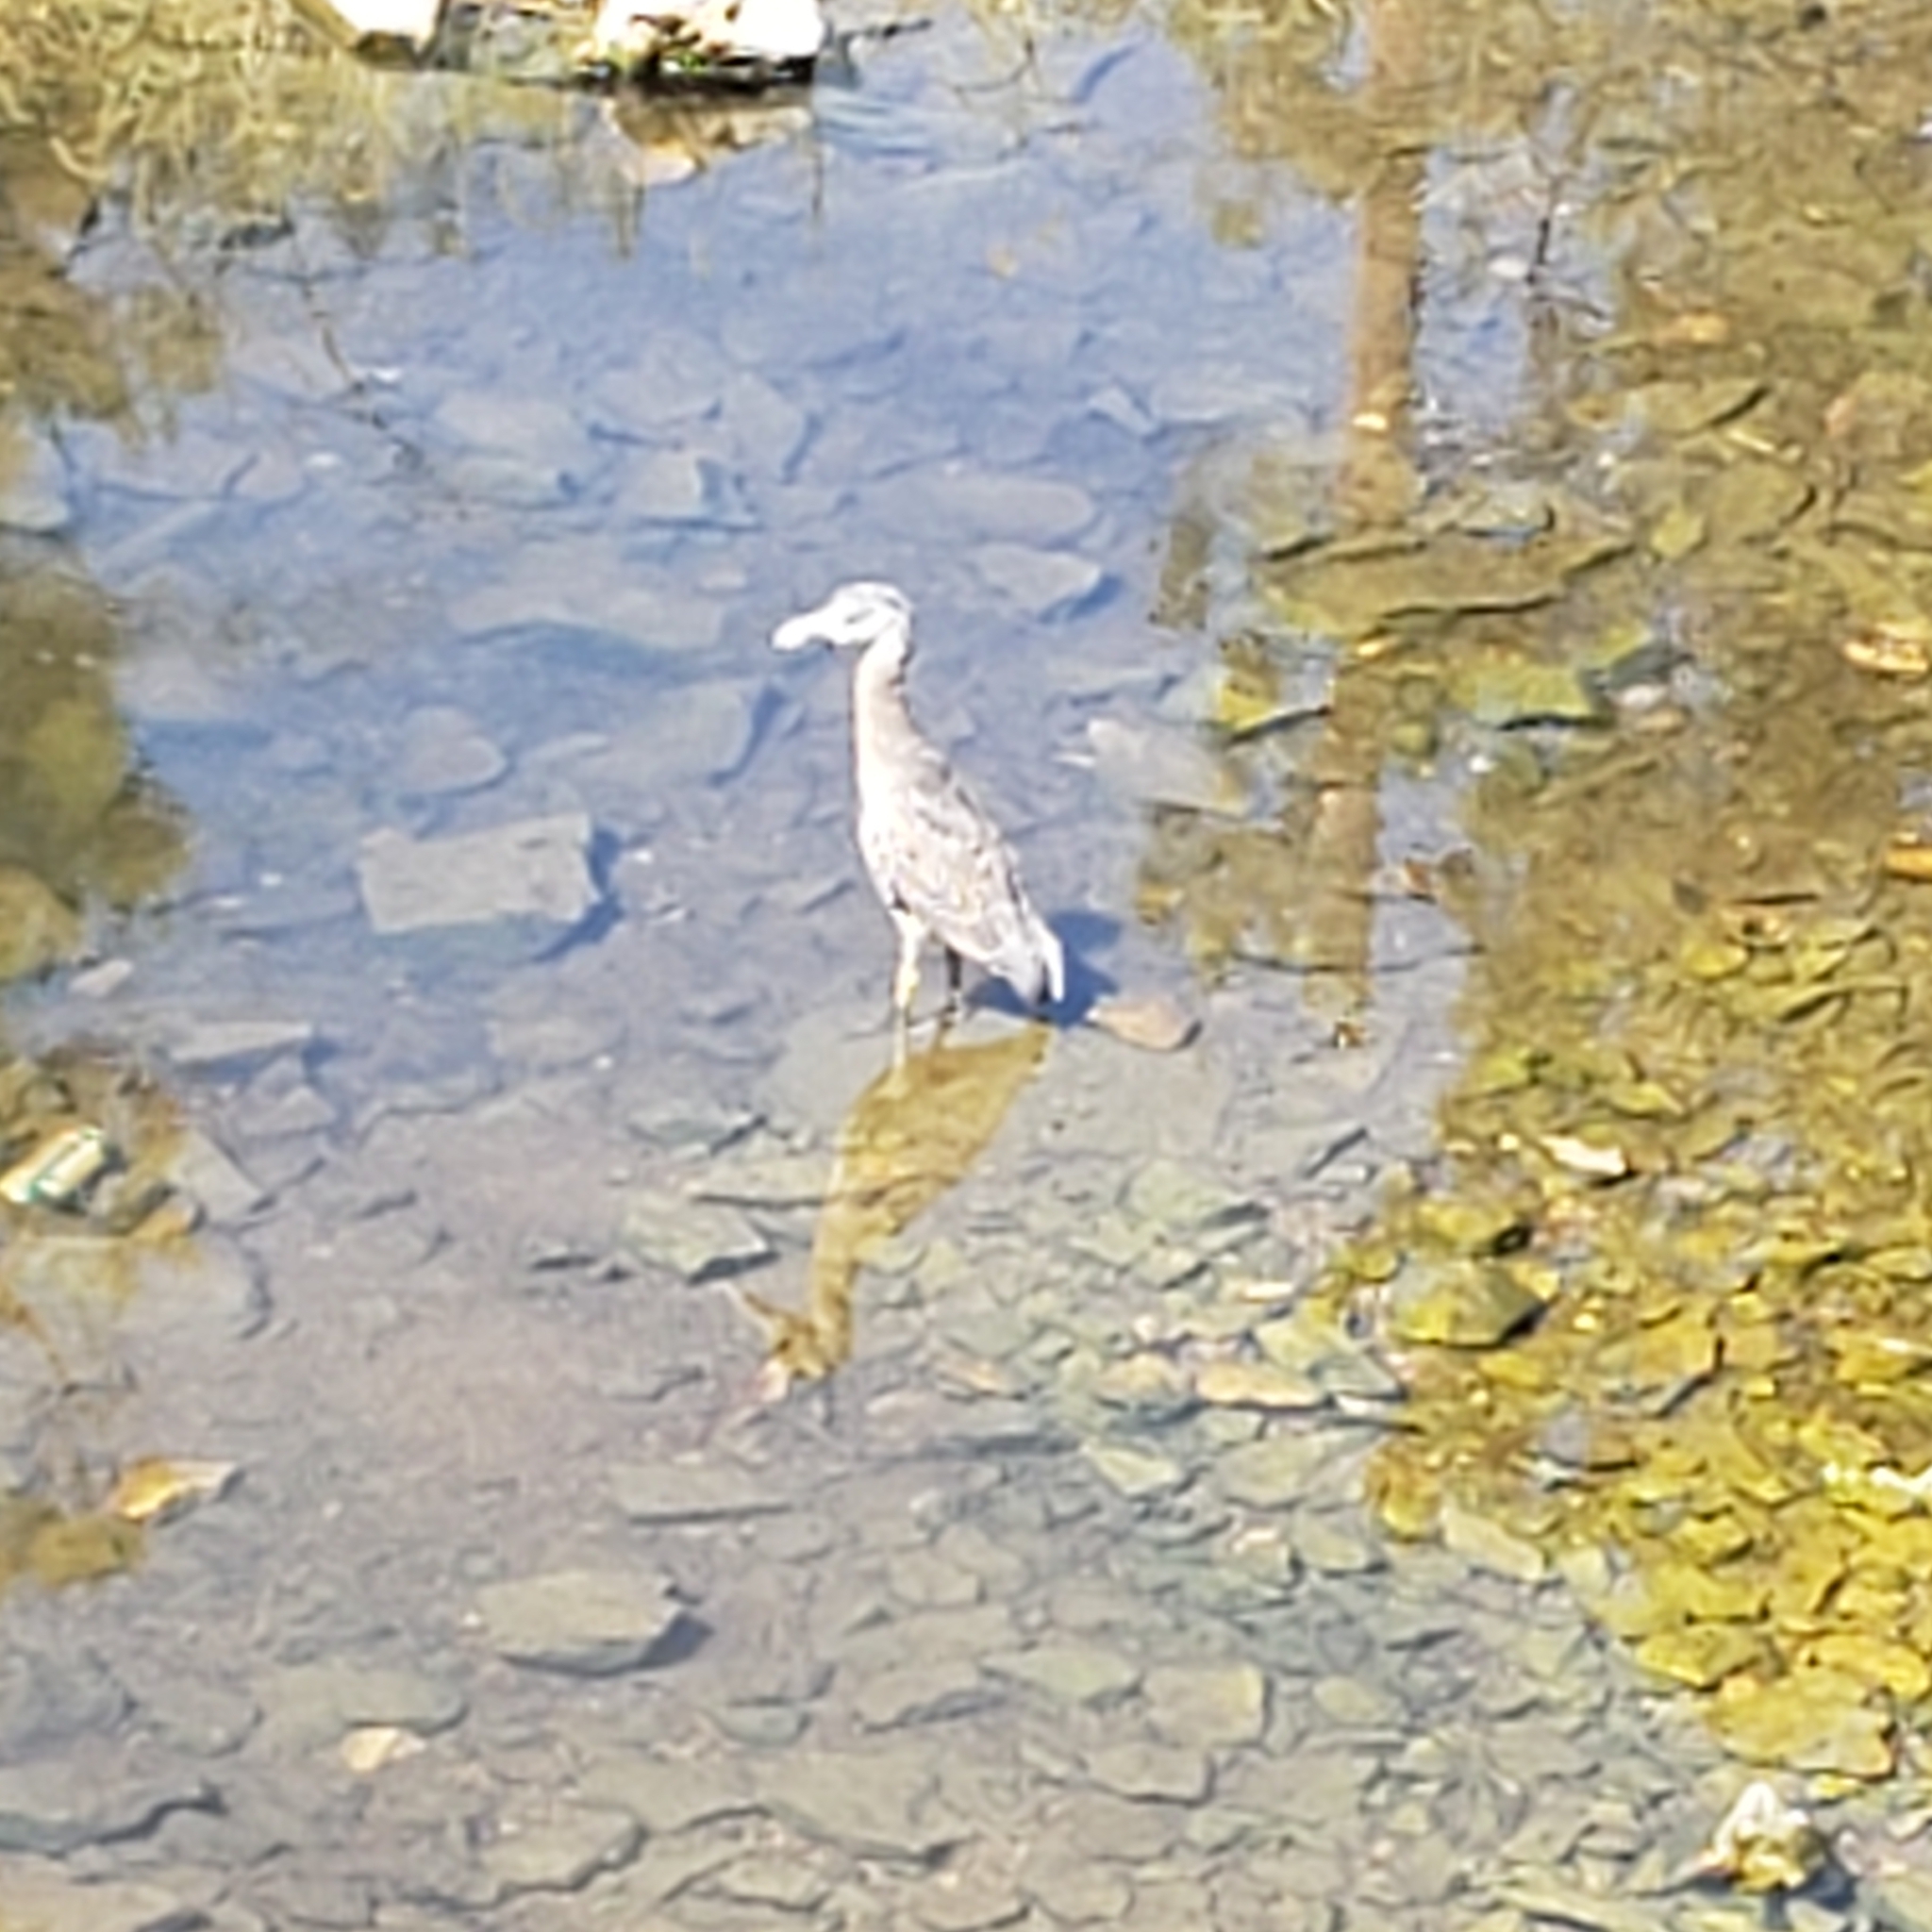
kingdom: Animalia
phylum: Chordata
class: Aves
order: Pelecaniformes
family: Ardeidae
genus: Nyctanassa
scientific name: Nyctanassa violacea
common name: Yellow-crowned night heron
